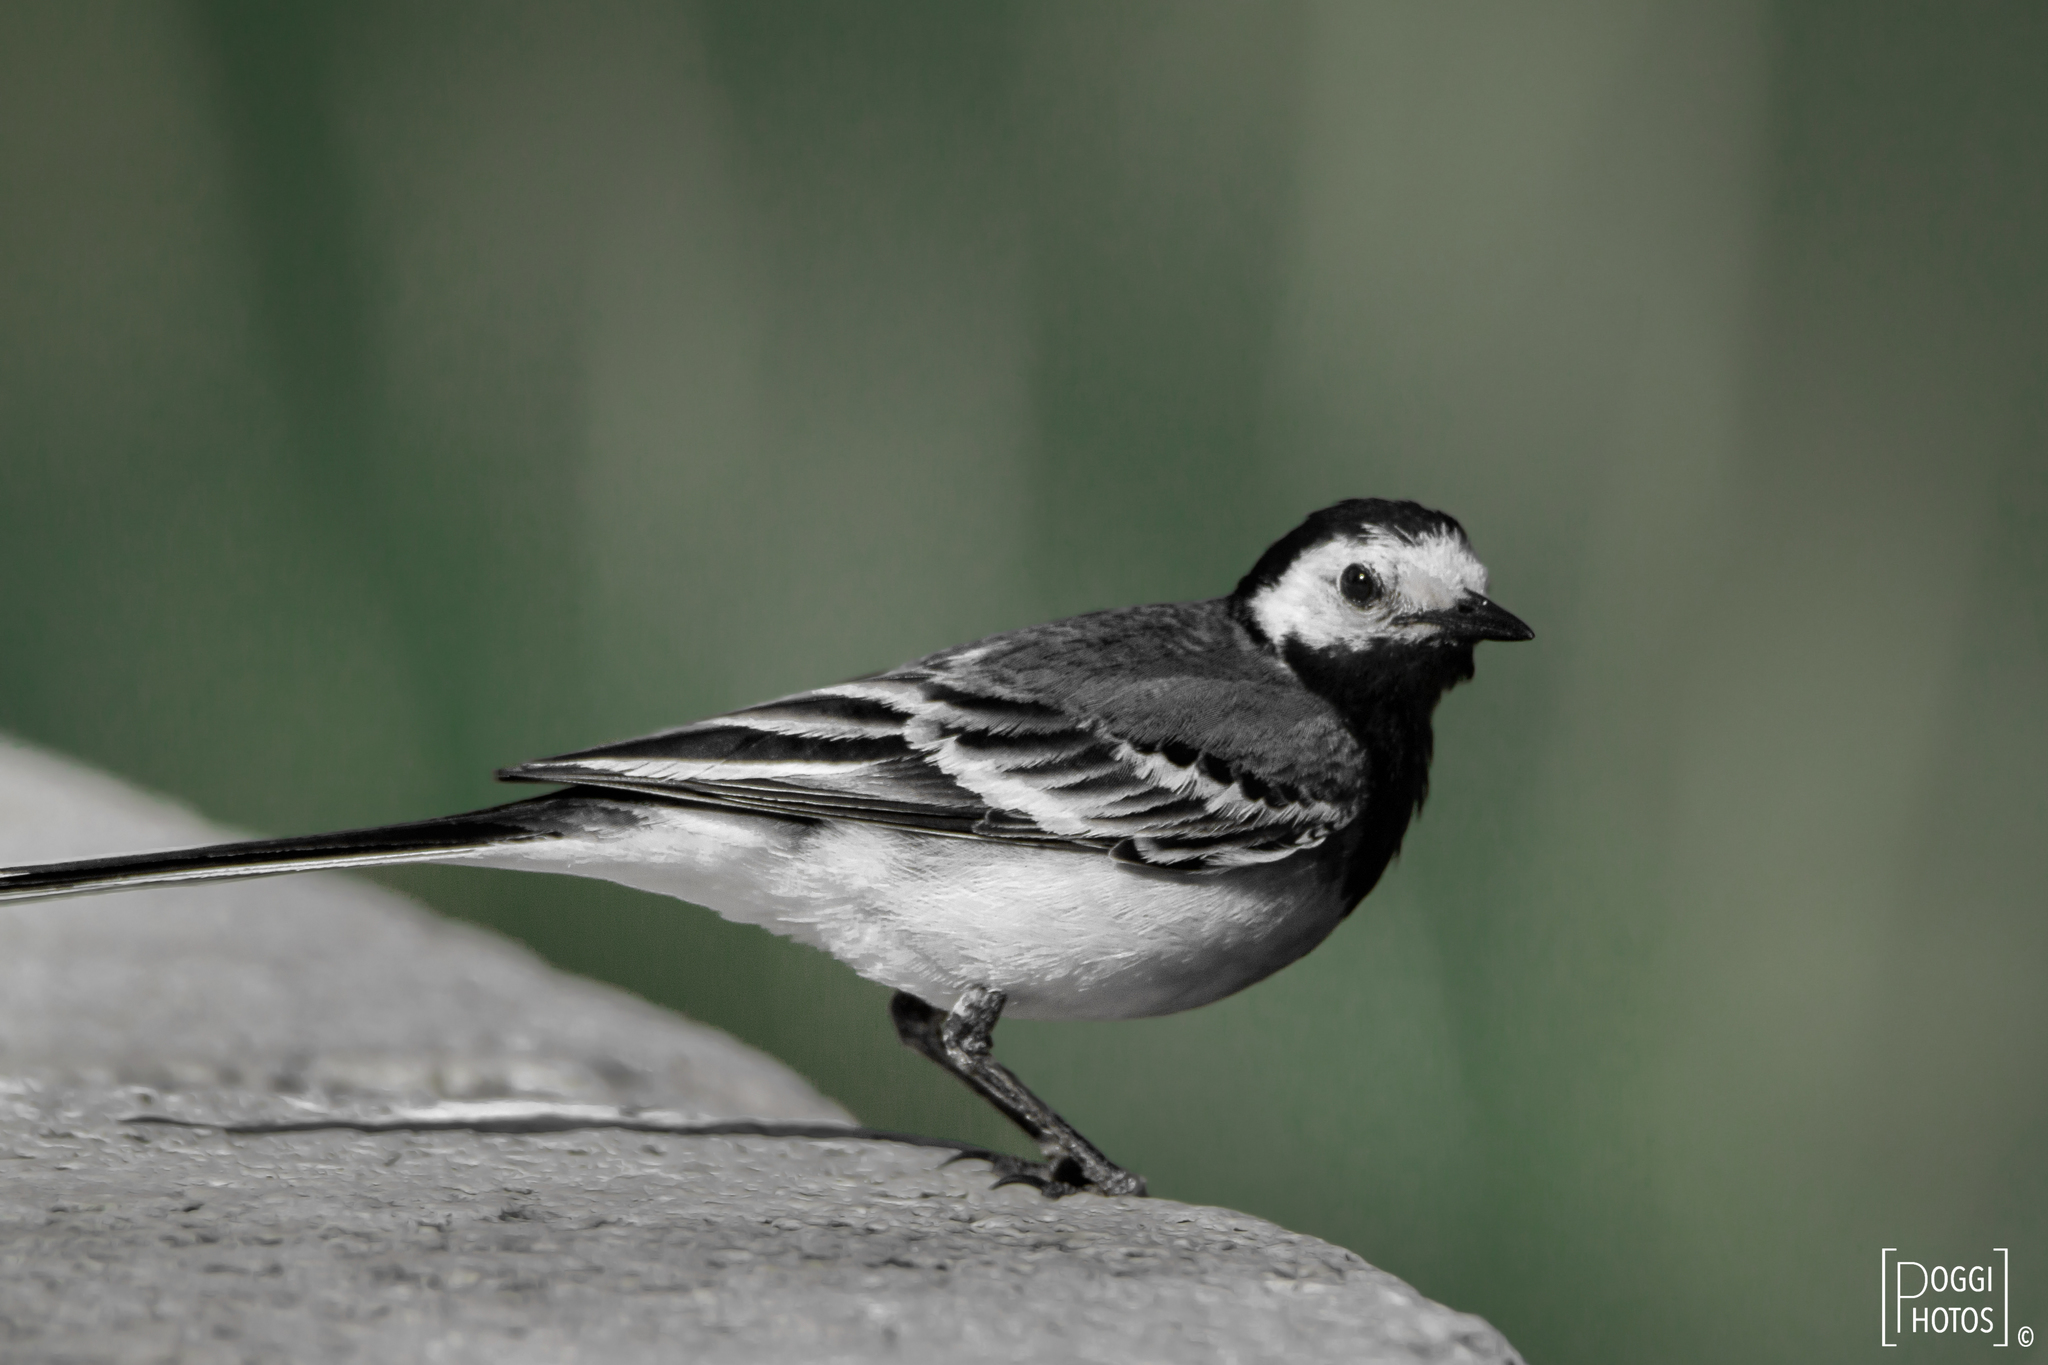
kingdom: Animalia
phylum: Chordata
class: Aves
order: Passeriformes
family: Motacillidae
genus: Motacilla
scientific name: Motacilla alba
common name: White wagtail
